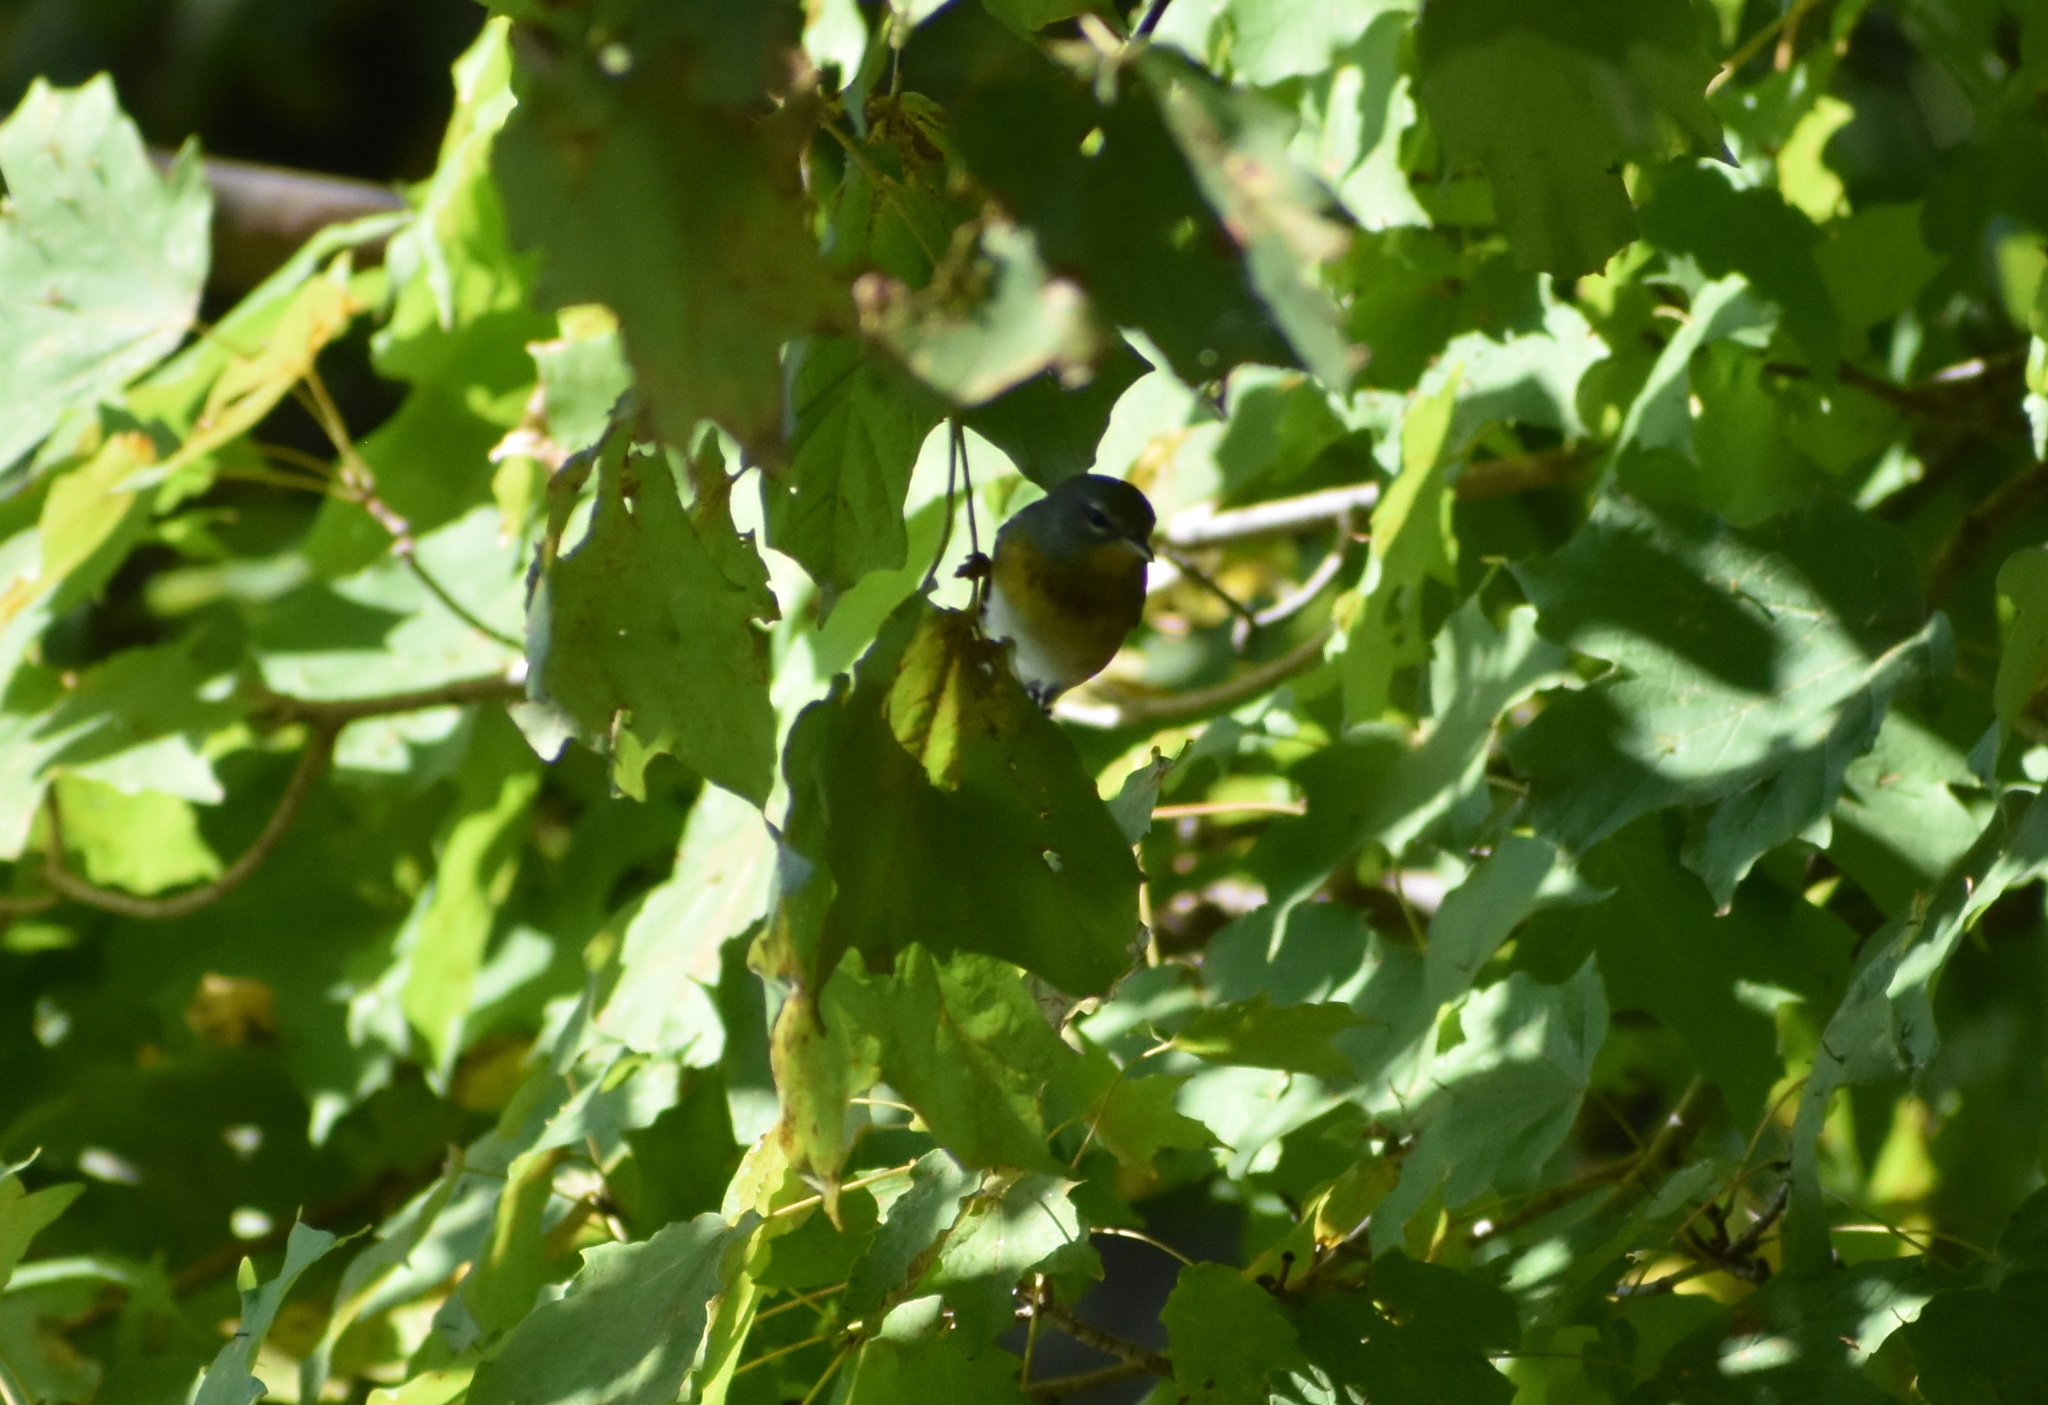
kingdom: Animalia
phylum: Chordata
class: Aves
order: Passeriformes
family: Parulidae
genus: Setophaga
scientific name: Setophaga americana
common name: Northern parula
